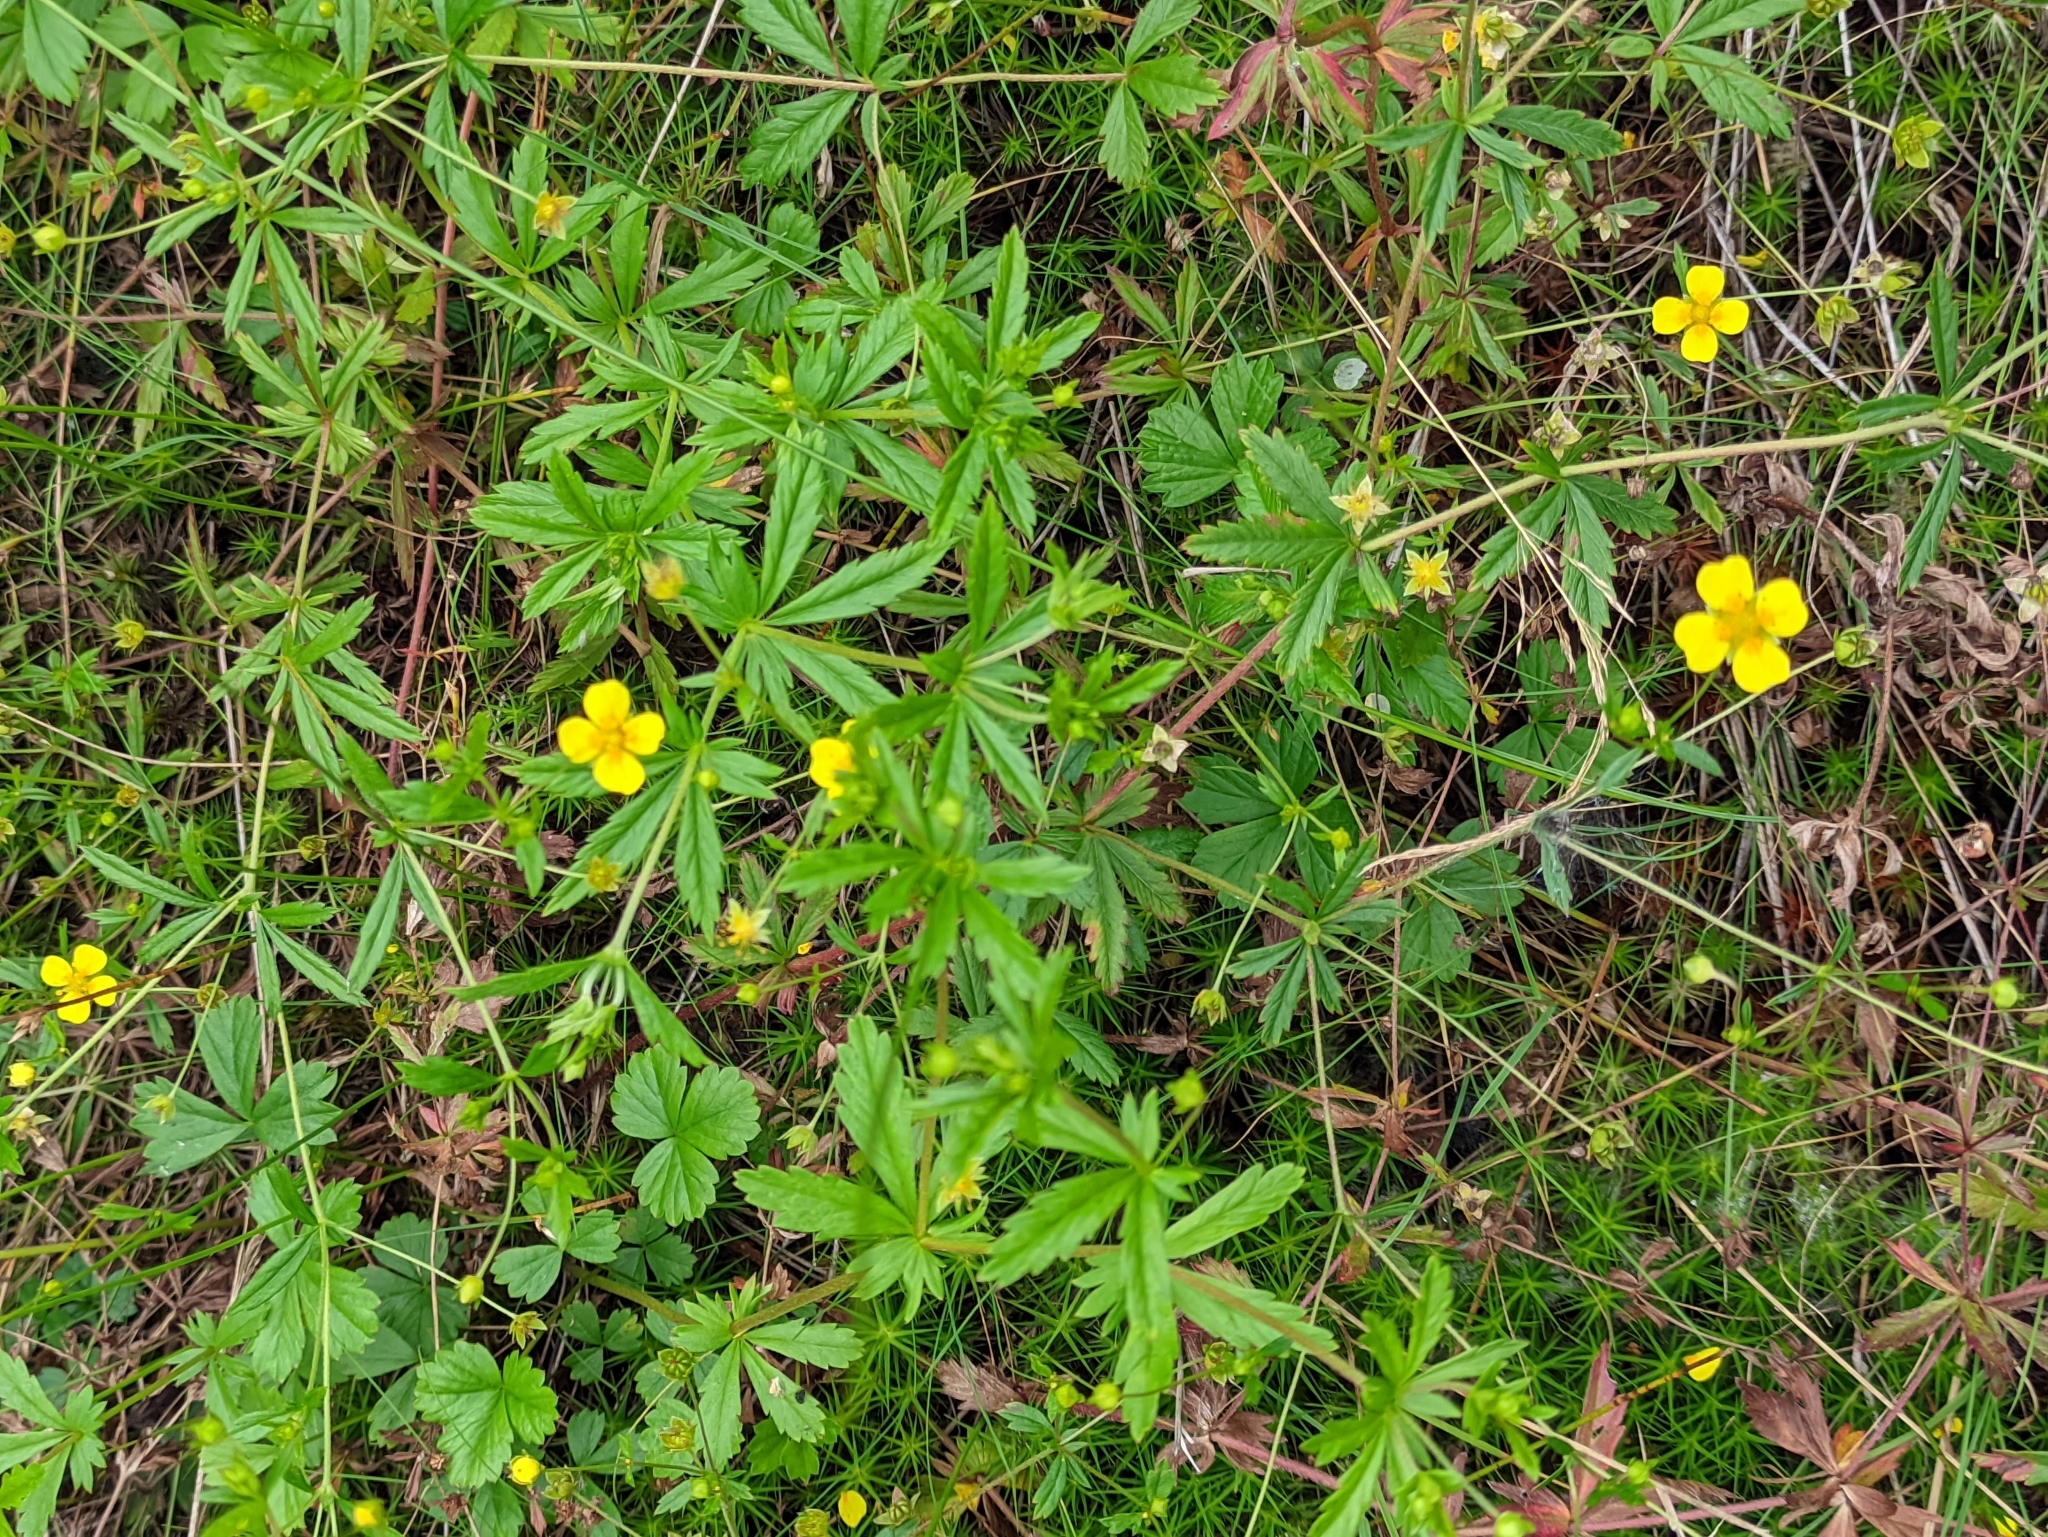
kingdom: Plantae
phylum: Tracheophyta
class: Magnoliopsida
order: Rosales
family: Rosaceae
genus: Potentilla
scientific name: Potentilla erecta
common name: Tormentil
